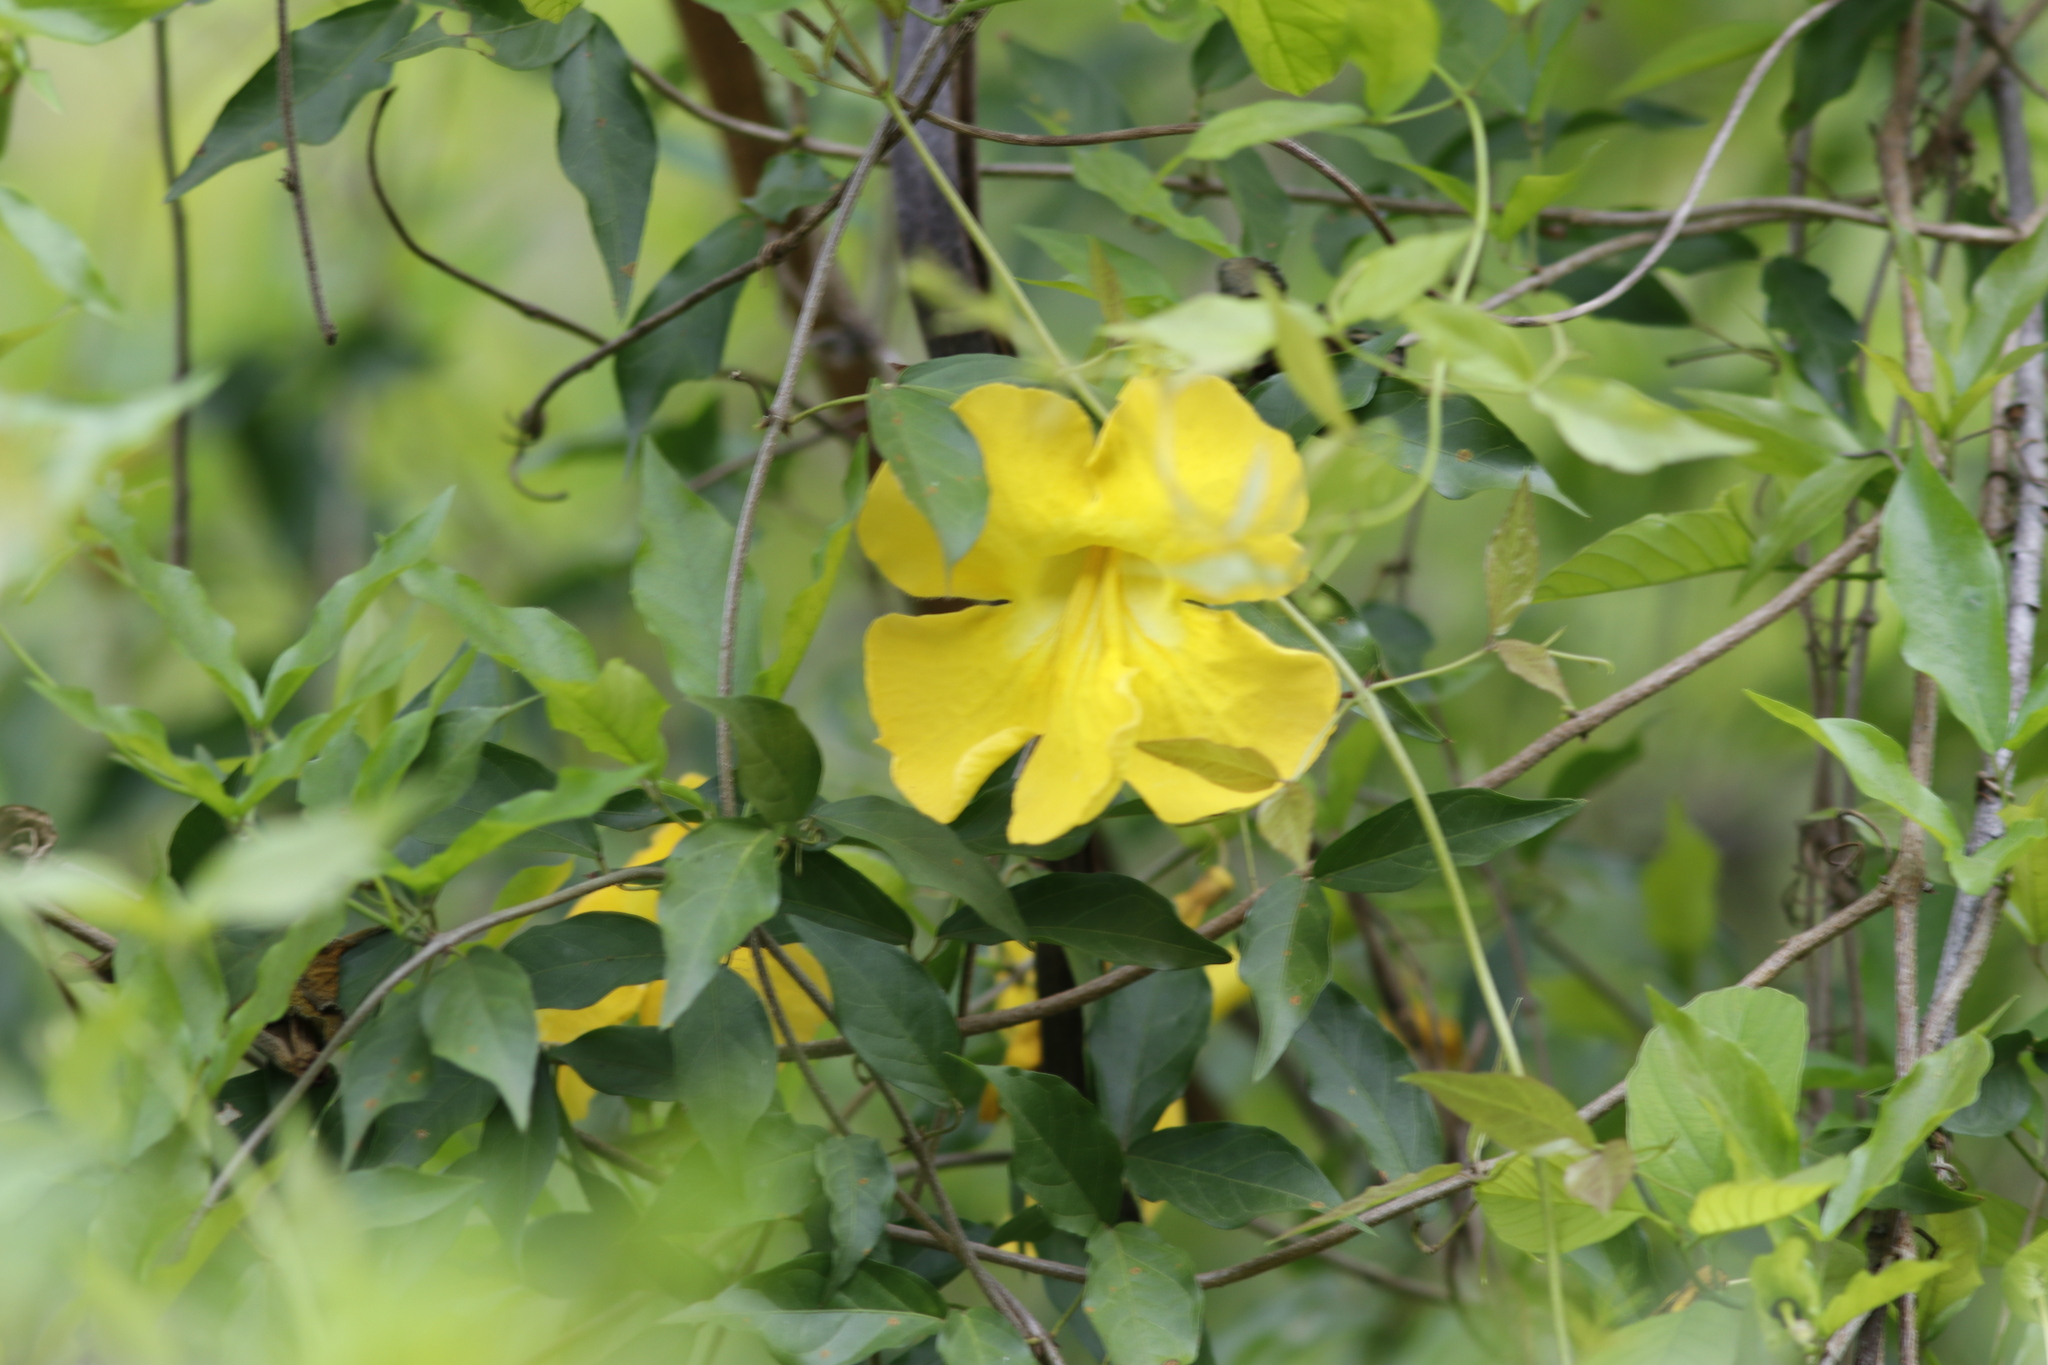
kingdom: Plantae
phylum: Tracheophyta
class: Magnoliopsida
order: Lamiales
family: Bignoniaceae
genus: Dolichandra
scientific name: Dolichandra unguis-cati
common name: Catclaw vine
